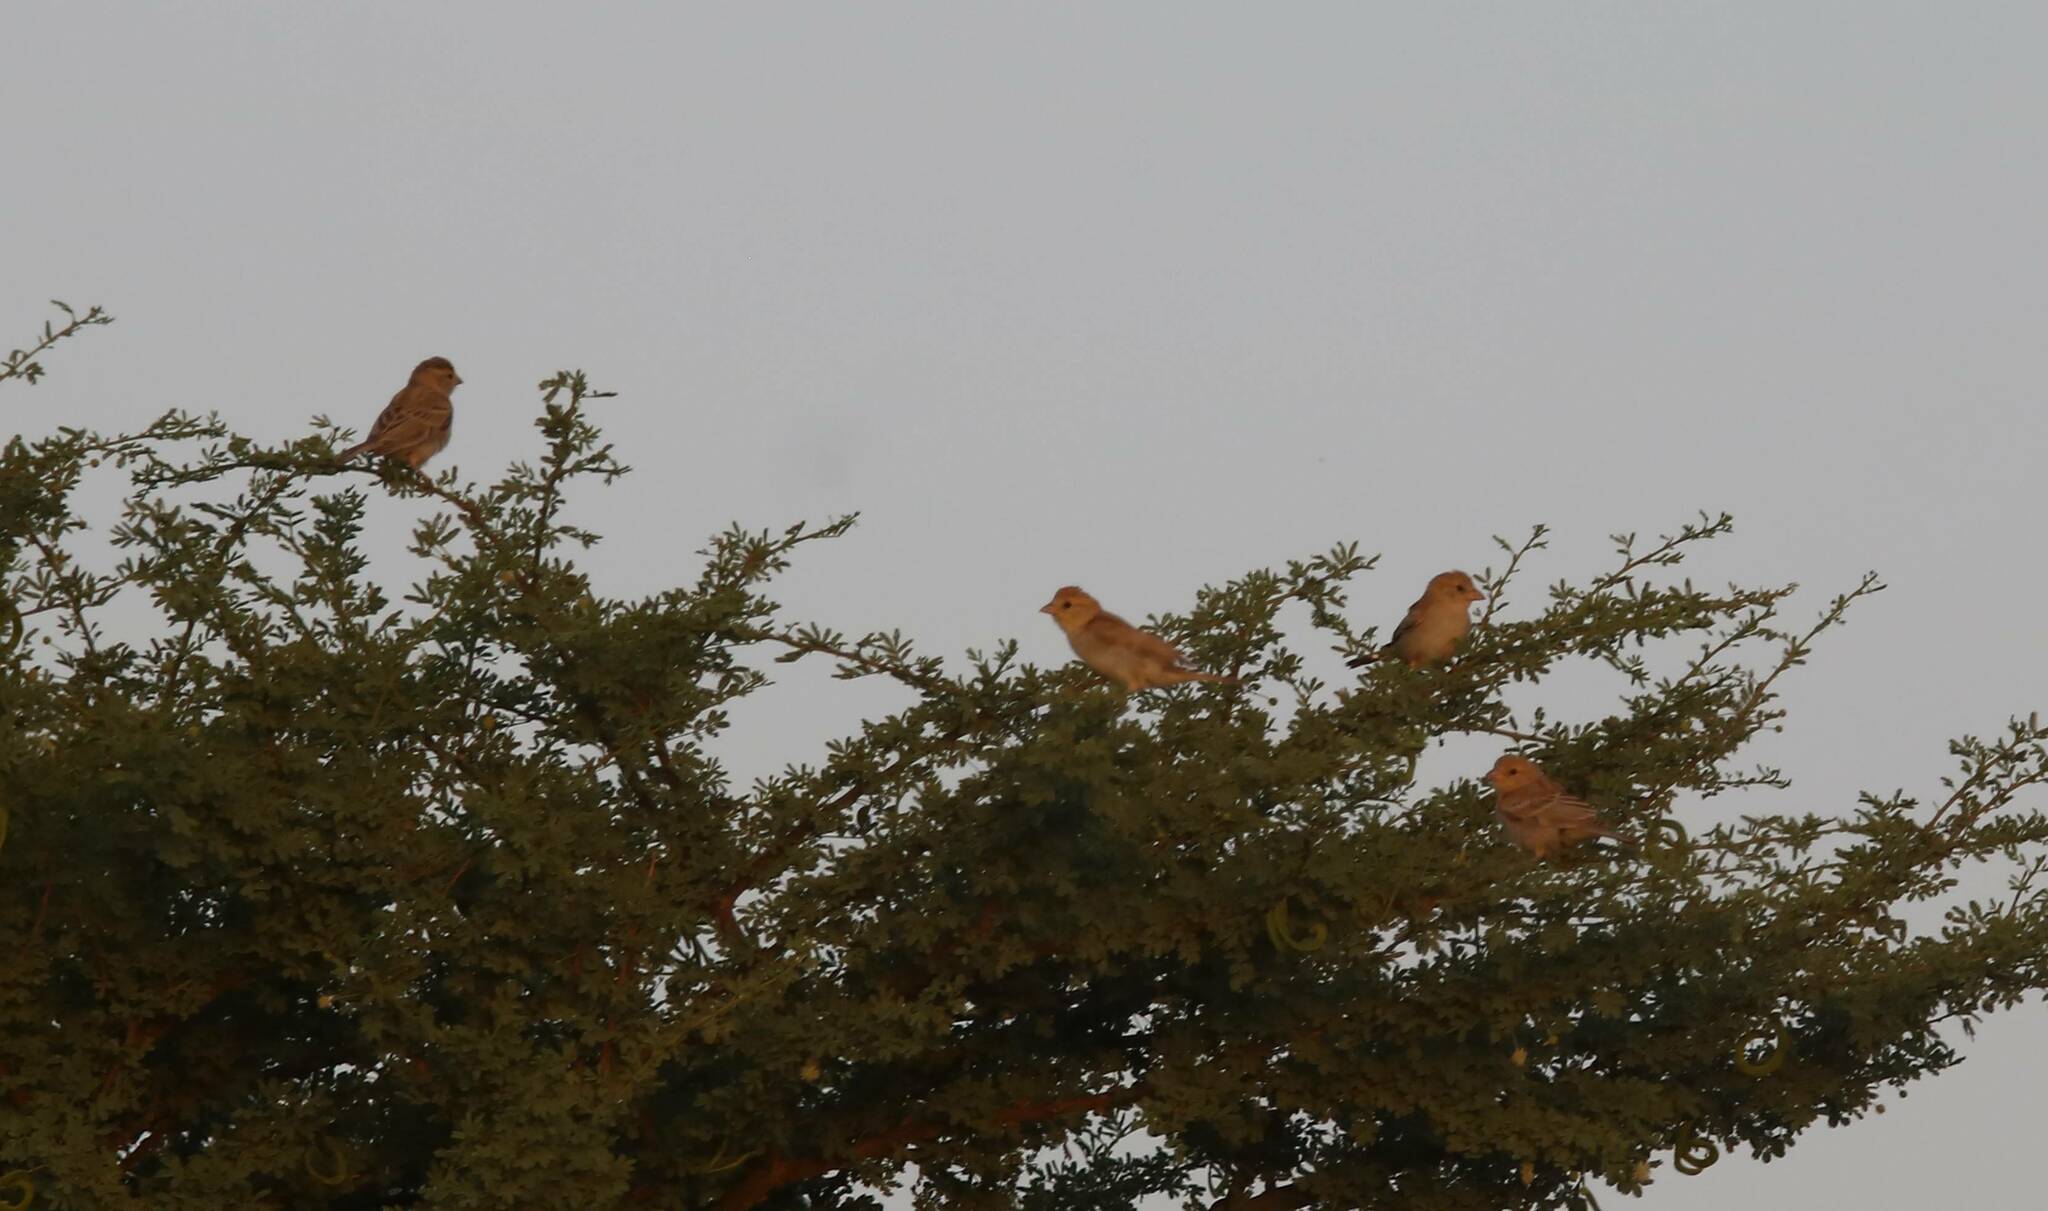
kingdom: Animalia
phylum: Chordata
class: Aves
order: Passeriformes
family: Passeridae
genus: Passer
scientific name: Passer luteus
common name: Sudan golden sparrow
